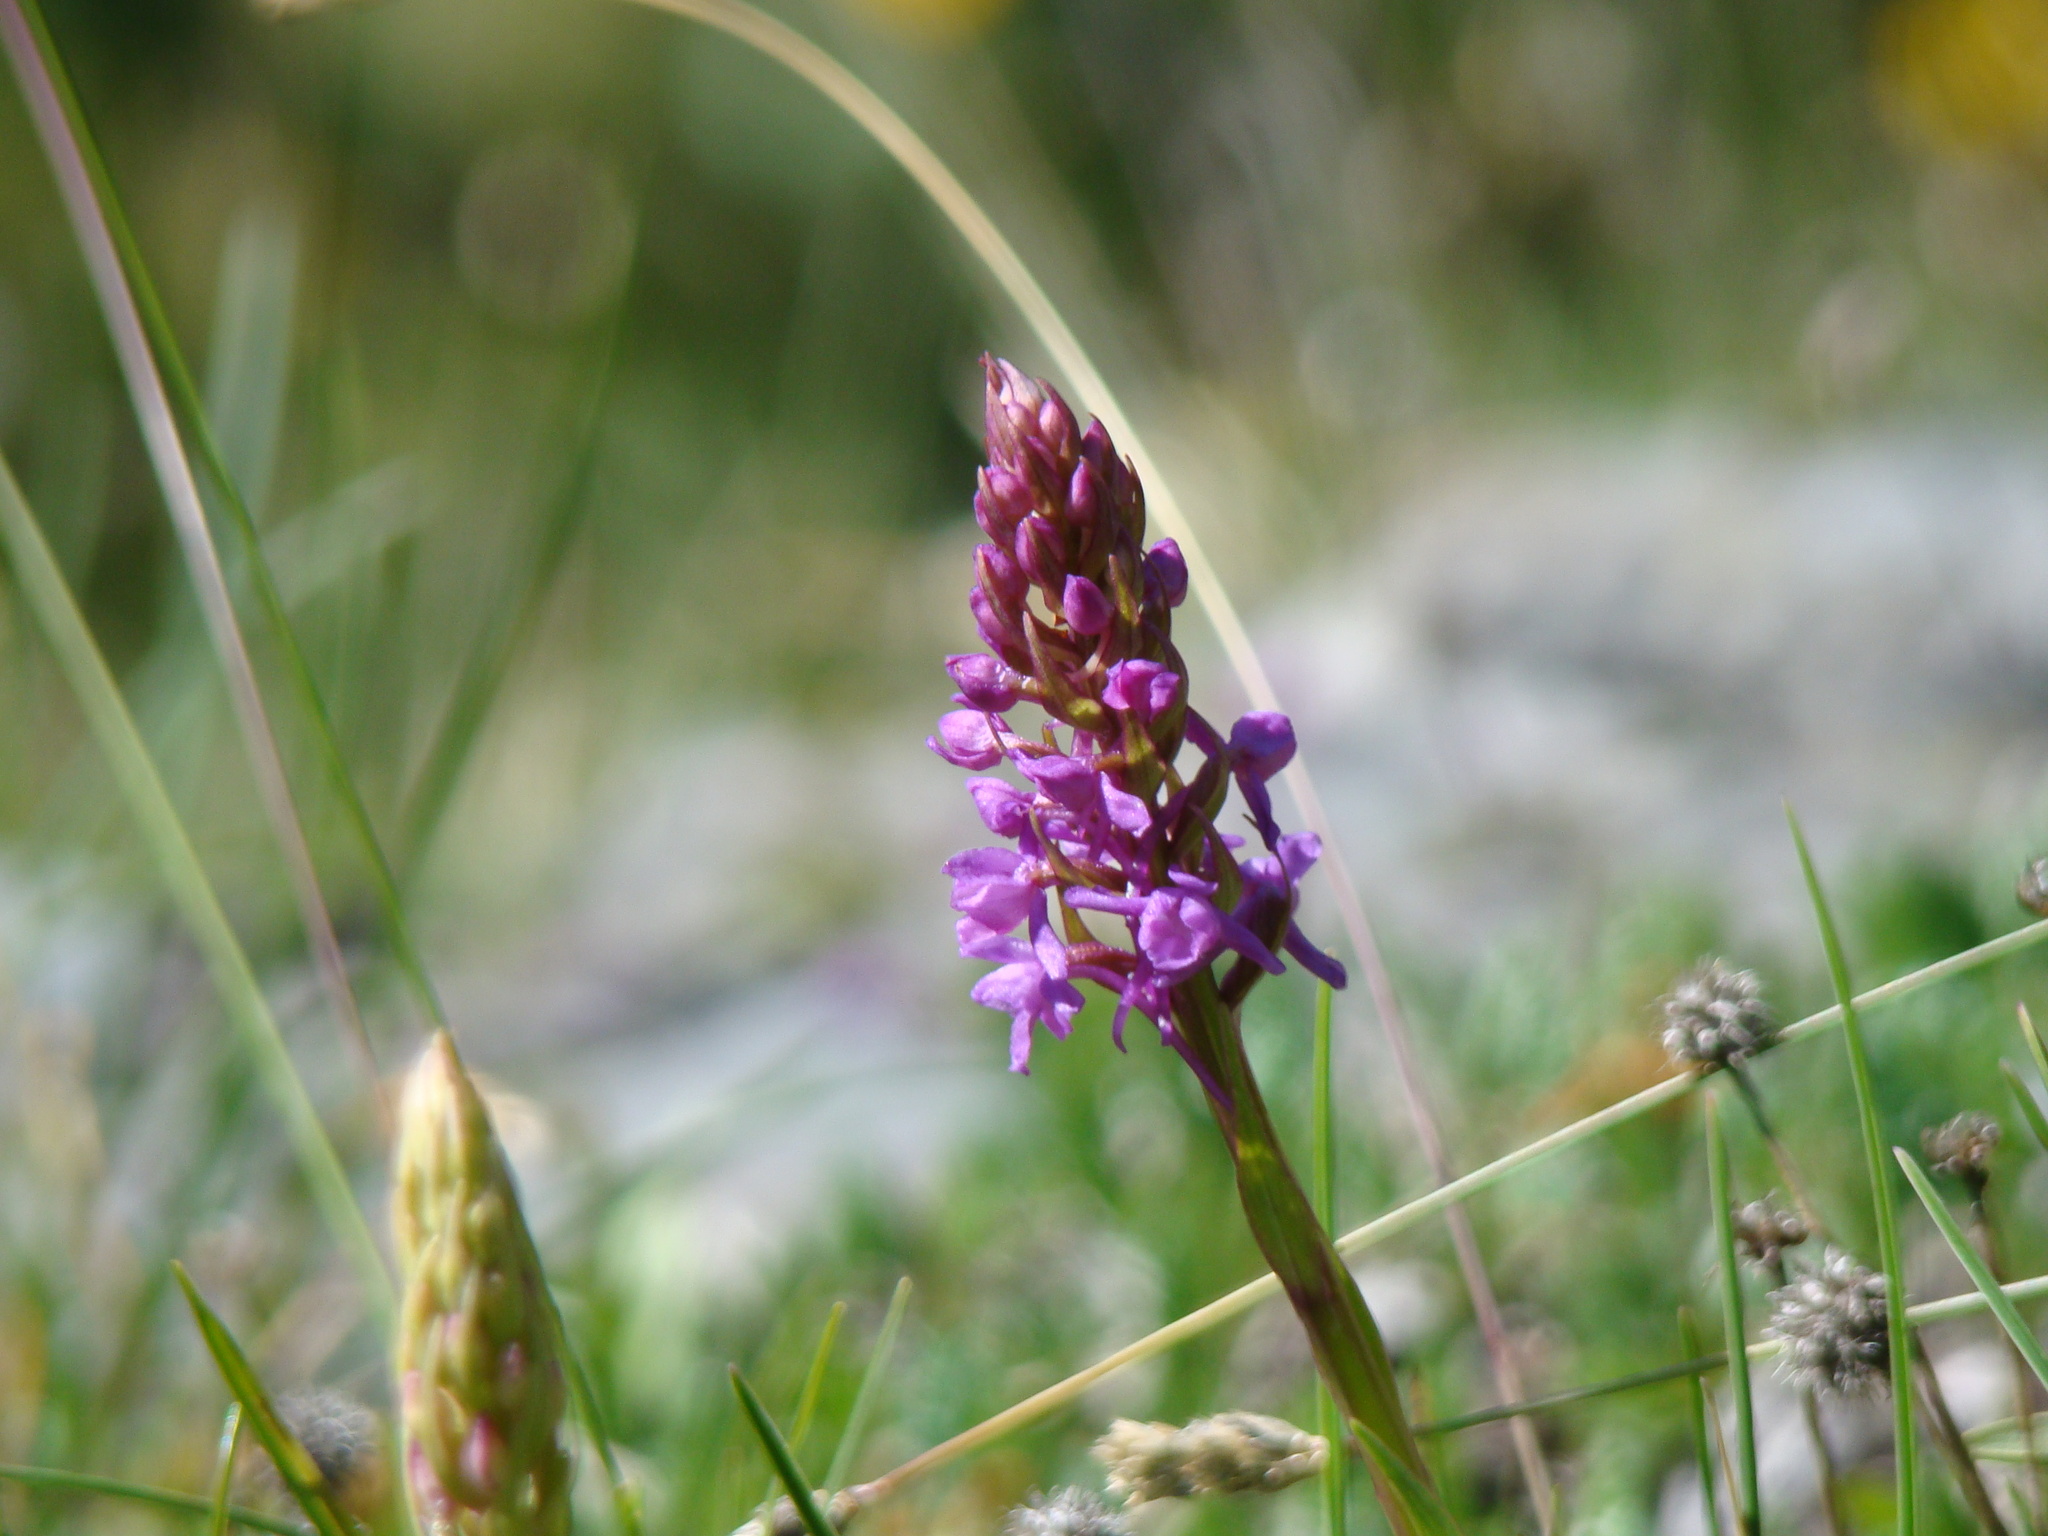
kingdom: Plantae
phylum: Tracheophyta
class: Liliopsida
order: Asparagales
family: Orchidaceae
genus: Gymnadenia
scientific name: Gymnadenia conopsea
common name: Fragrant orchid
